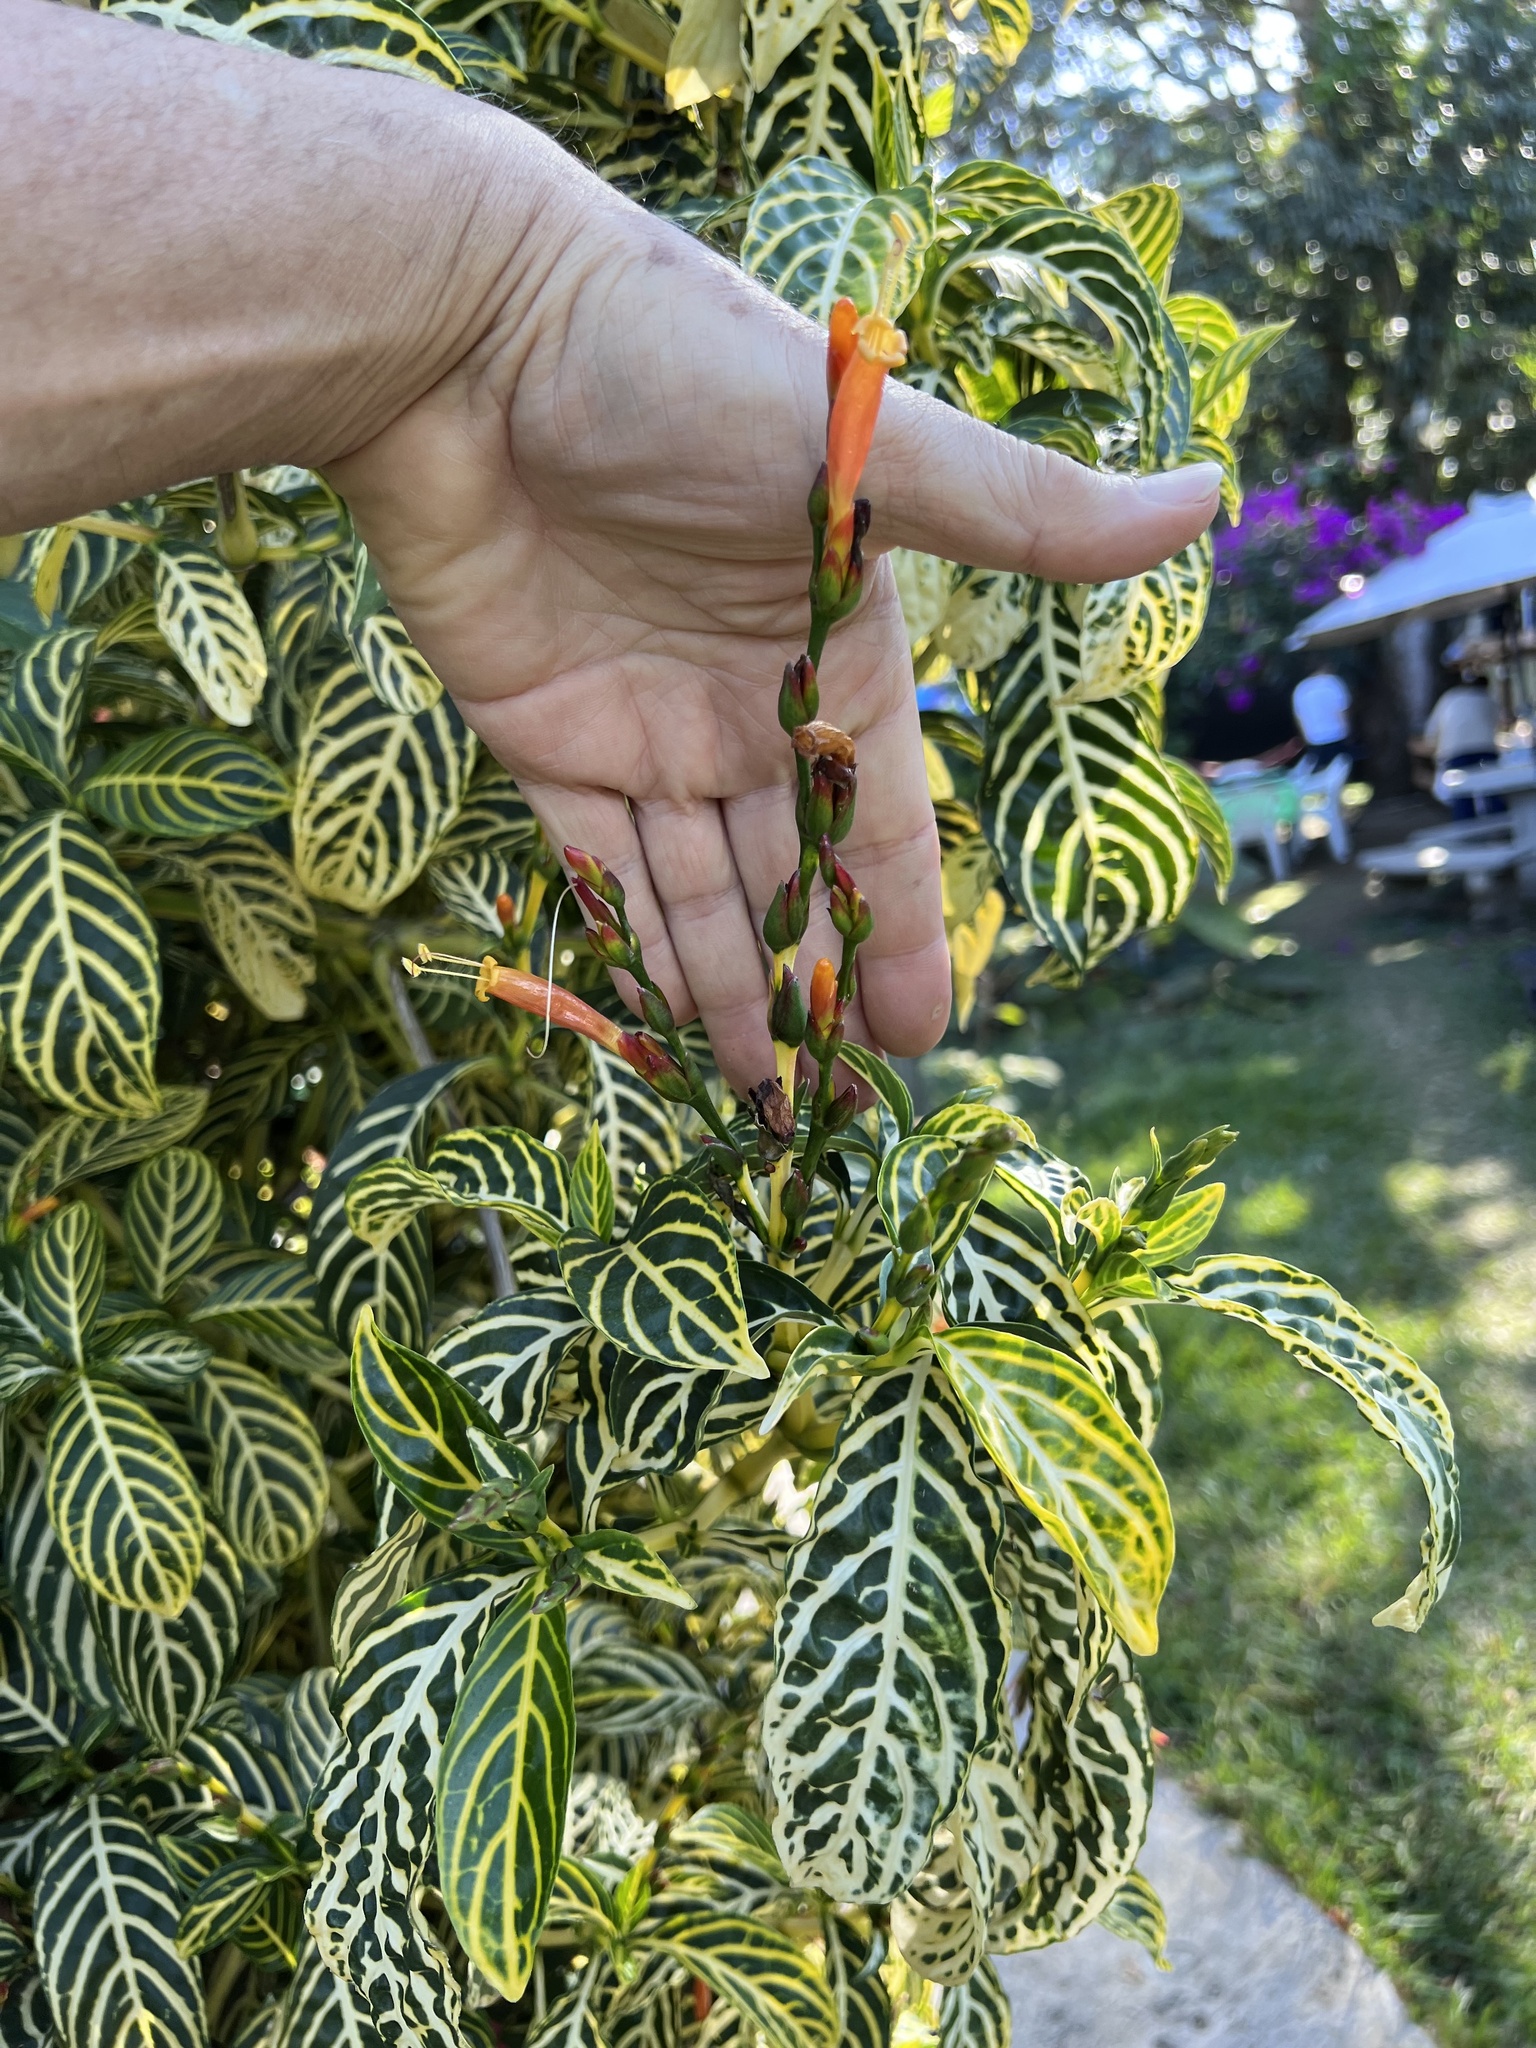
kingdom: Plantae
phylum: Tracheophyta
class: Magnoliopsida
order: Lamiales
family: Acanthaceae
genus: Sanchezia
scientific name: Sanchezia tigrina
